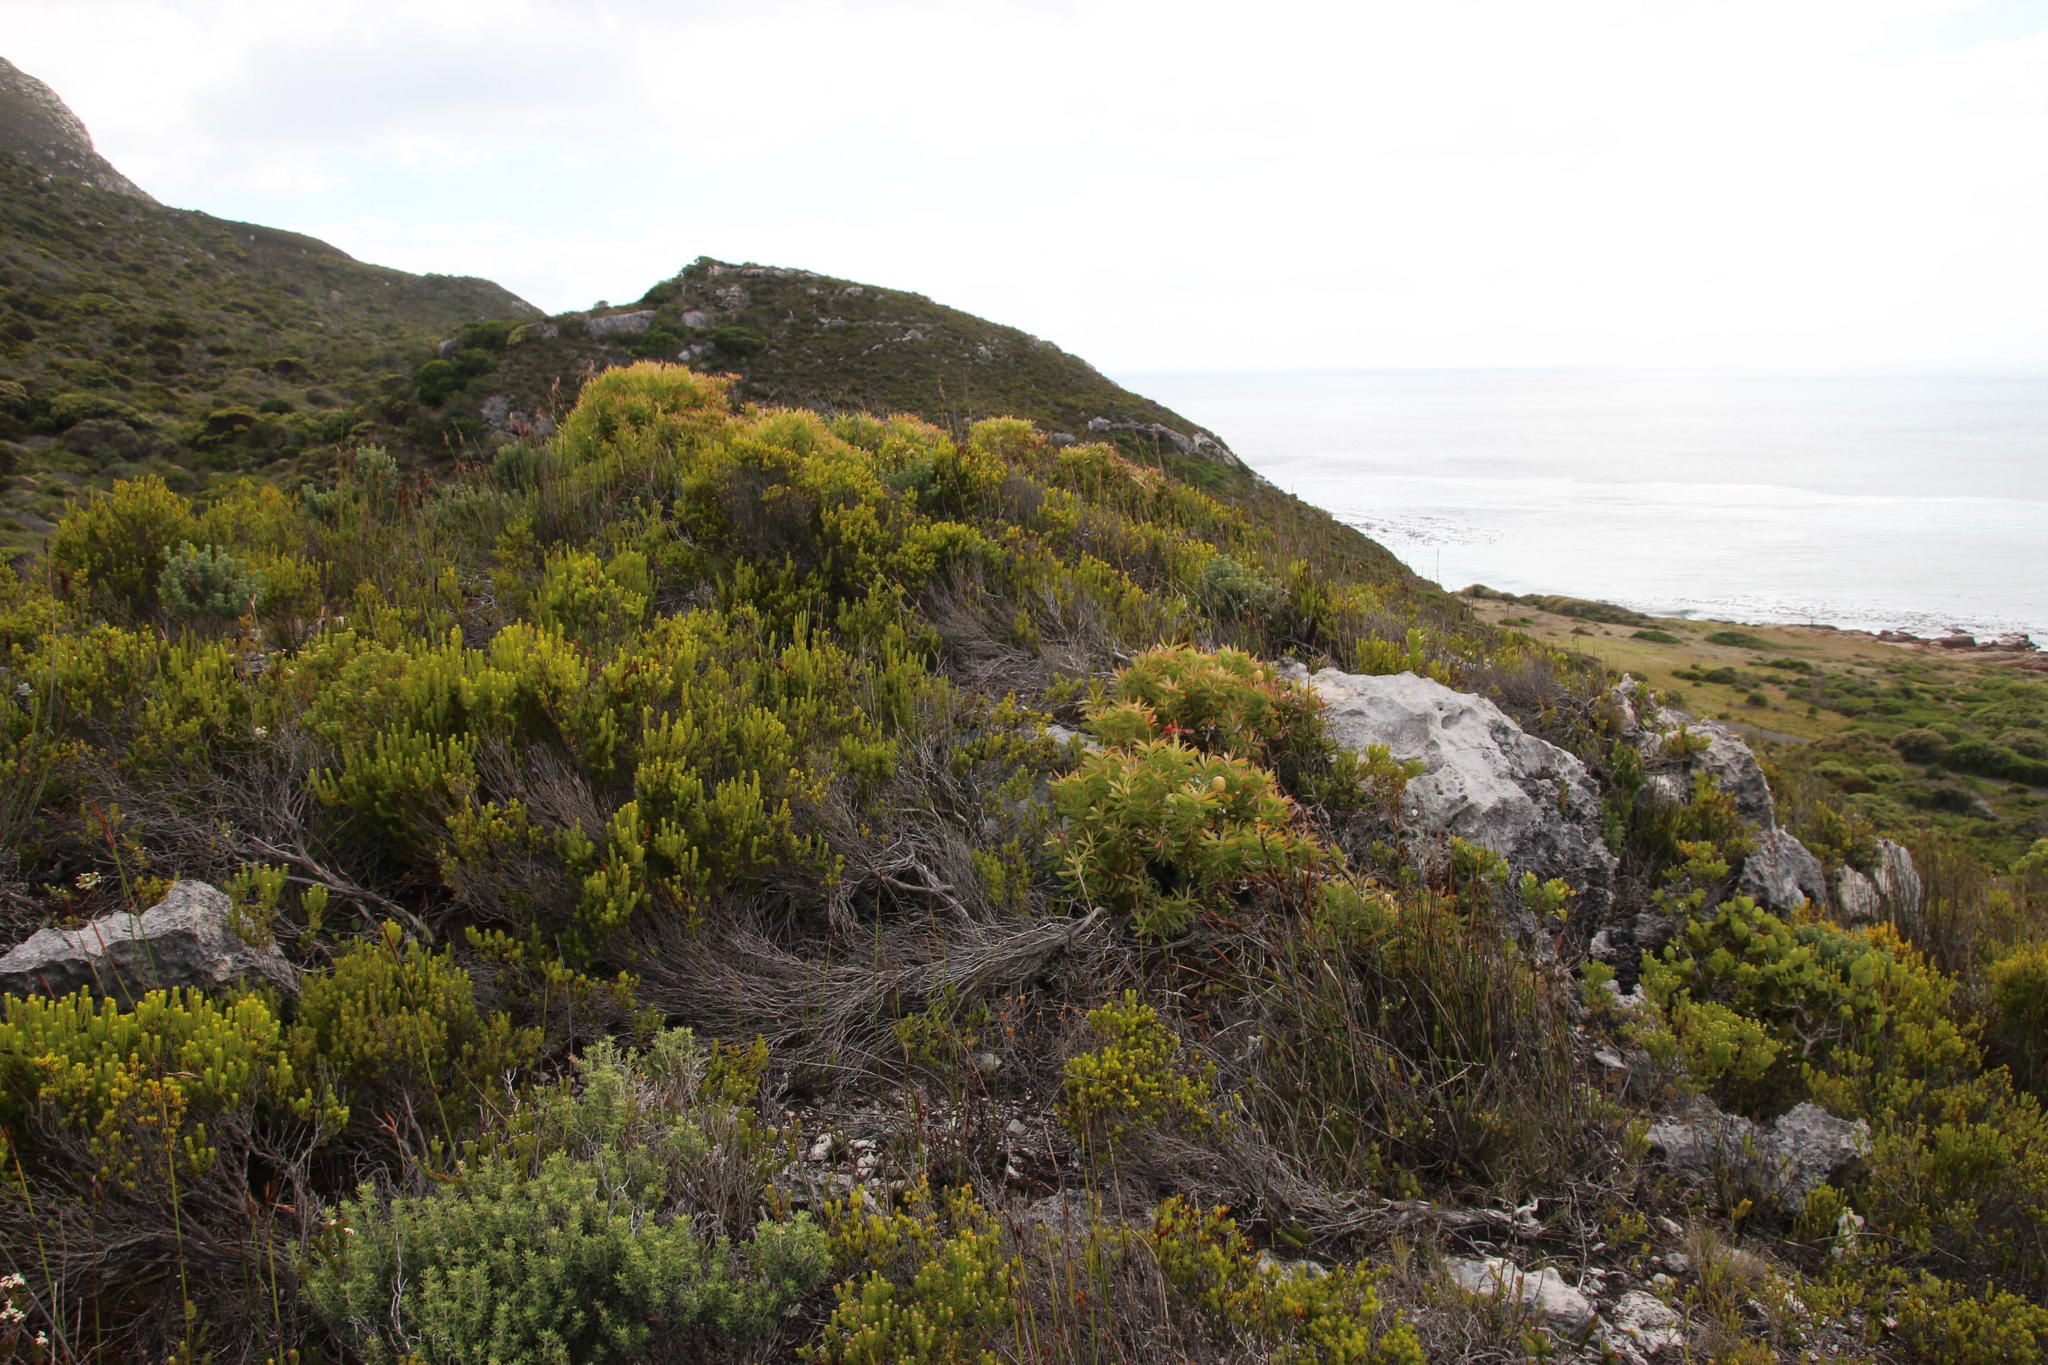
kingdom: Plantae
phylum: Tracheophyta
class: Magnoliopsida
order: Proteales
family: Proteaceae
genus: Leucadendron
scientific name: Leucadendron coniferum
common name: Dune conebush
